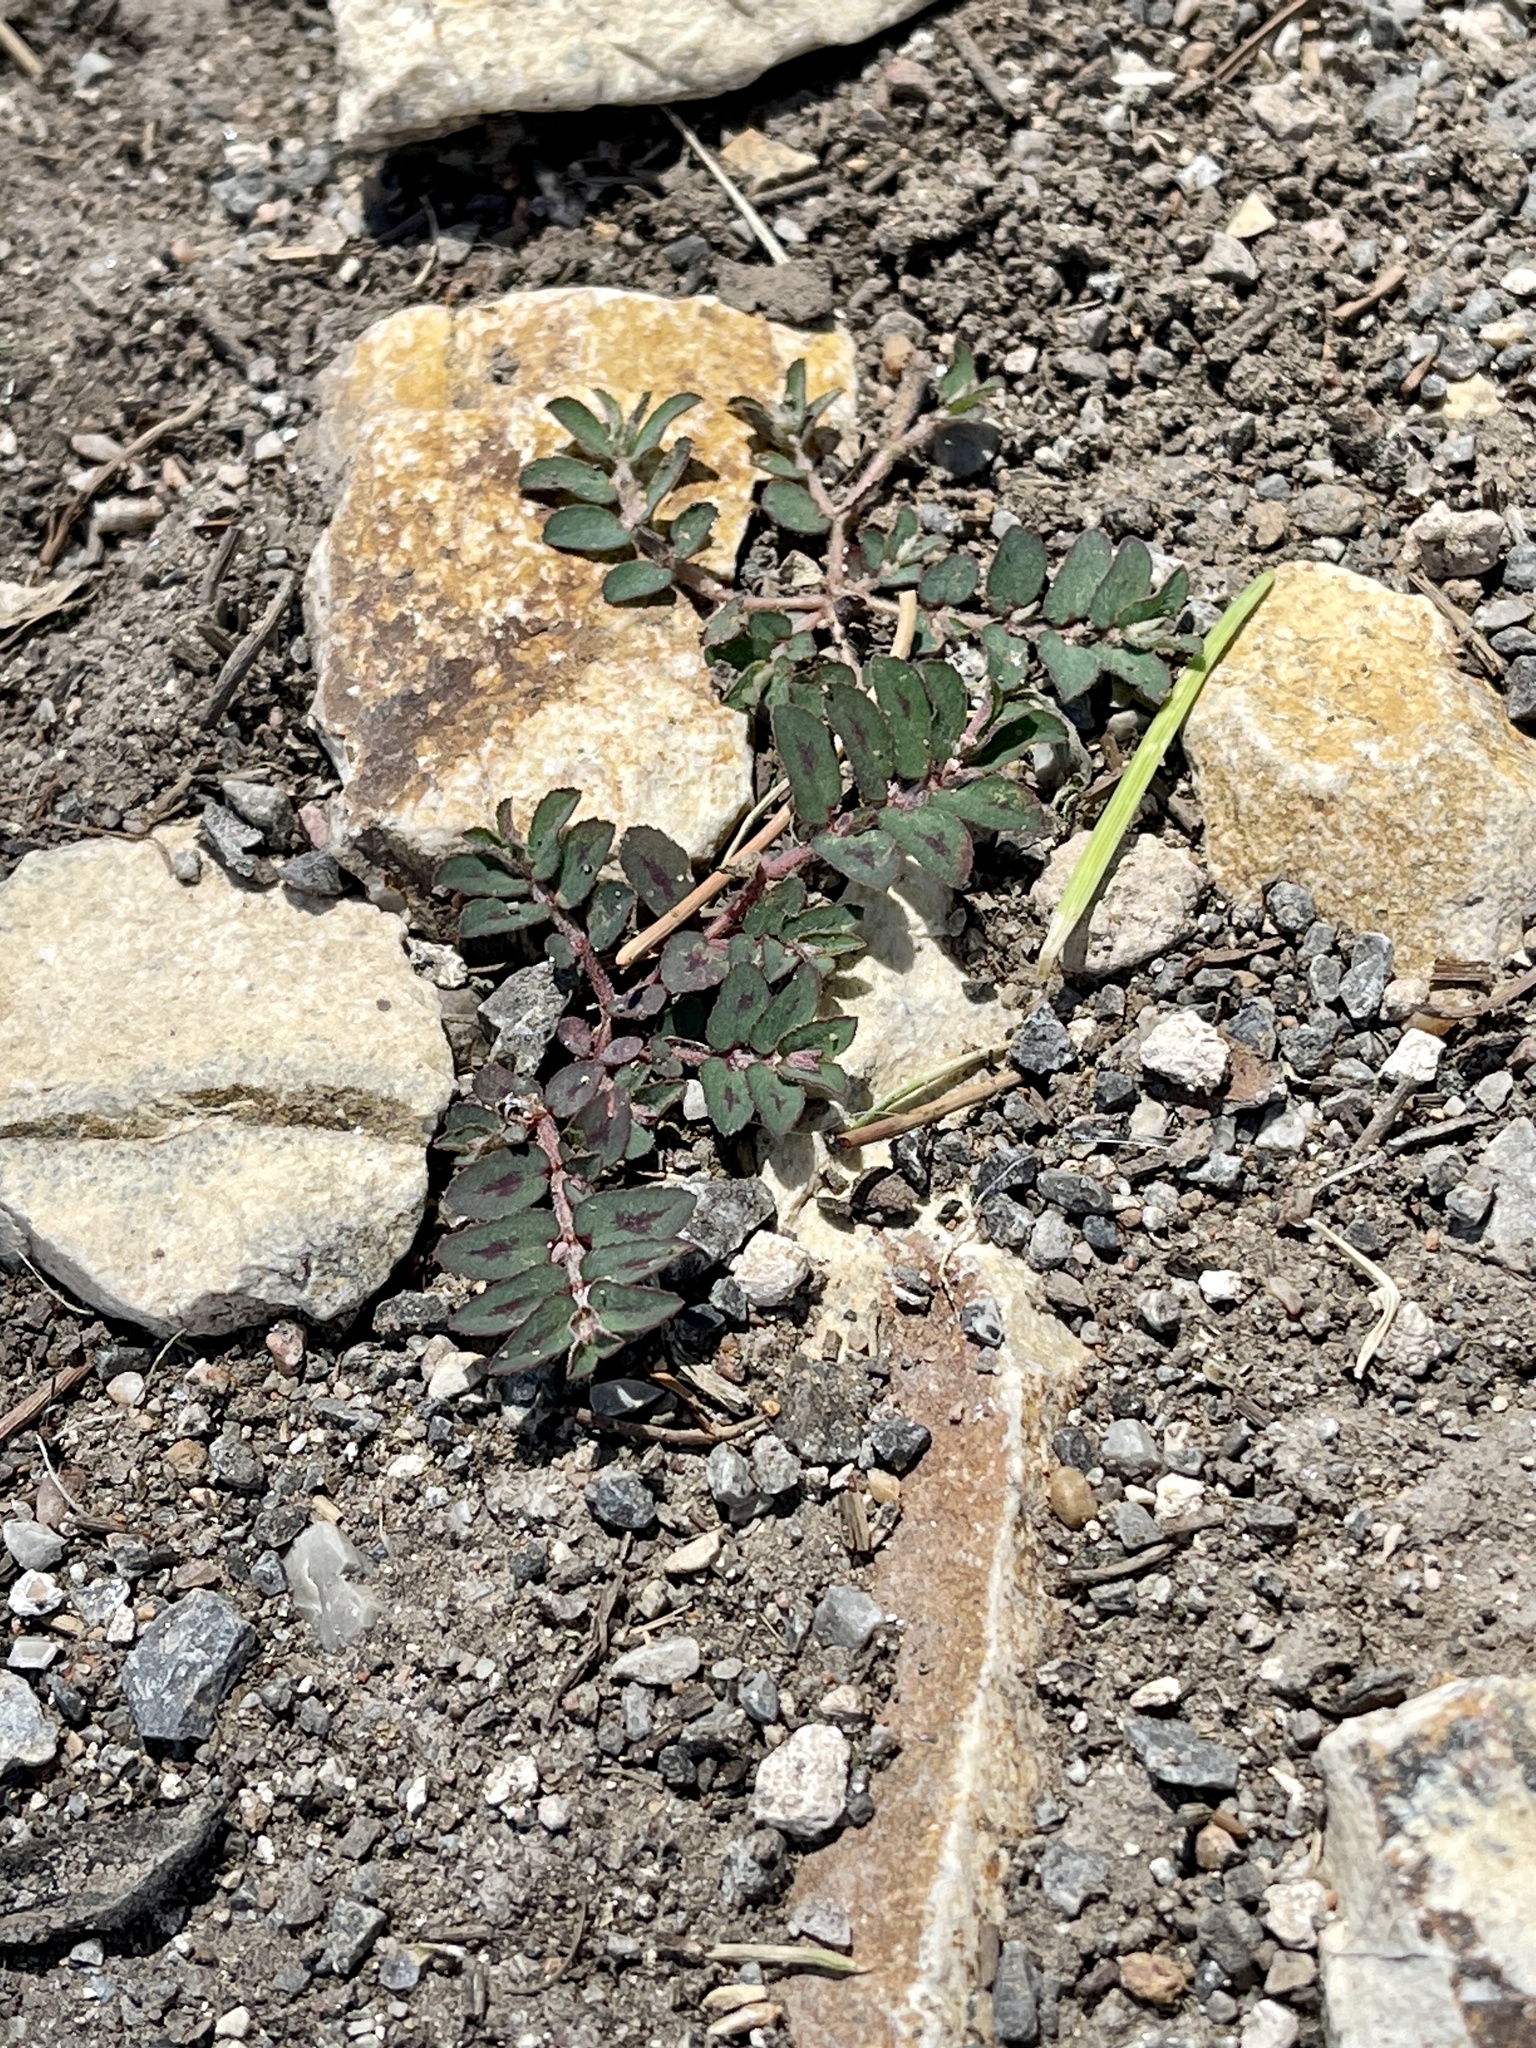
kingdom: Plantae
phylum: Tracheophyta
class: Magnoliopsida
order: Malpighiales
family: Euphorbiaceae
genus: Euphorbia
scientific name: Euphorbia maculata
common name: Spotted spurge
